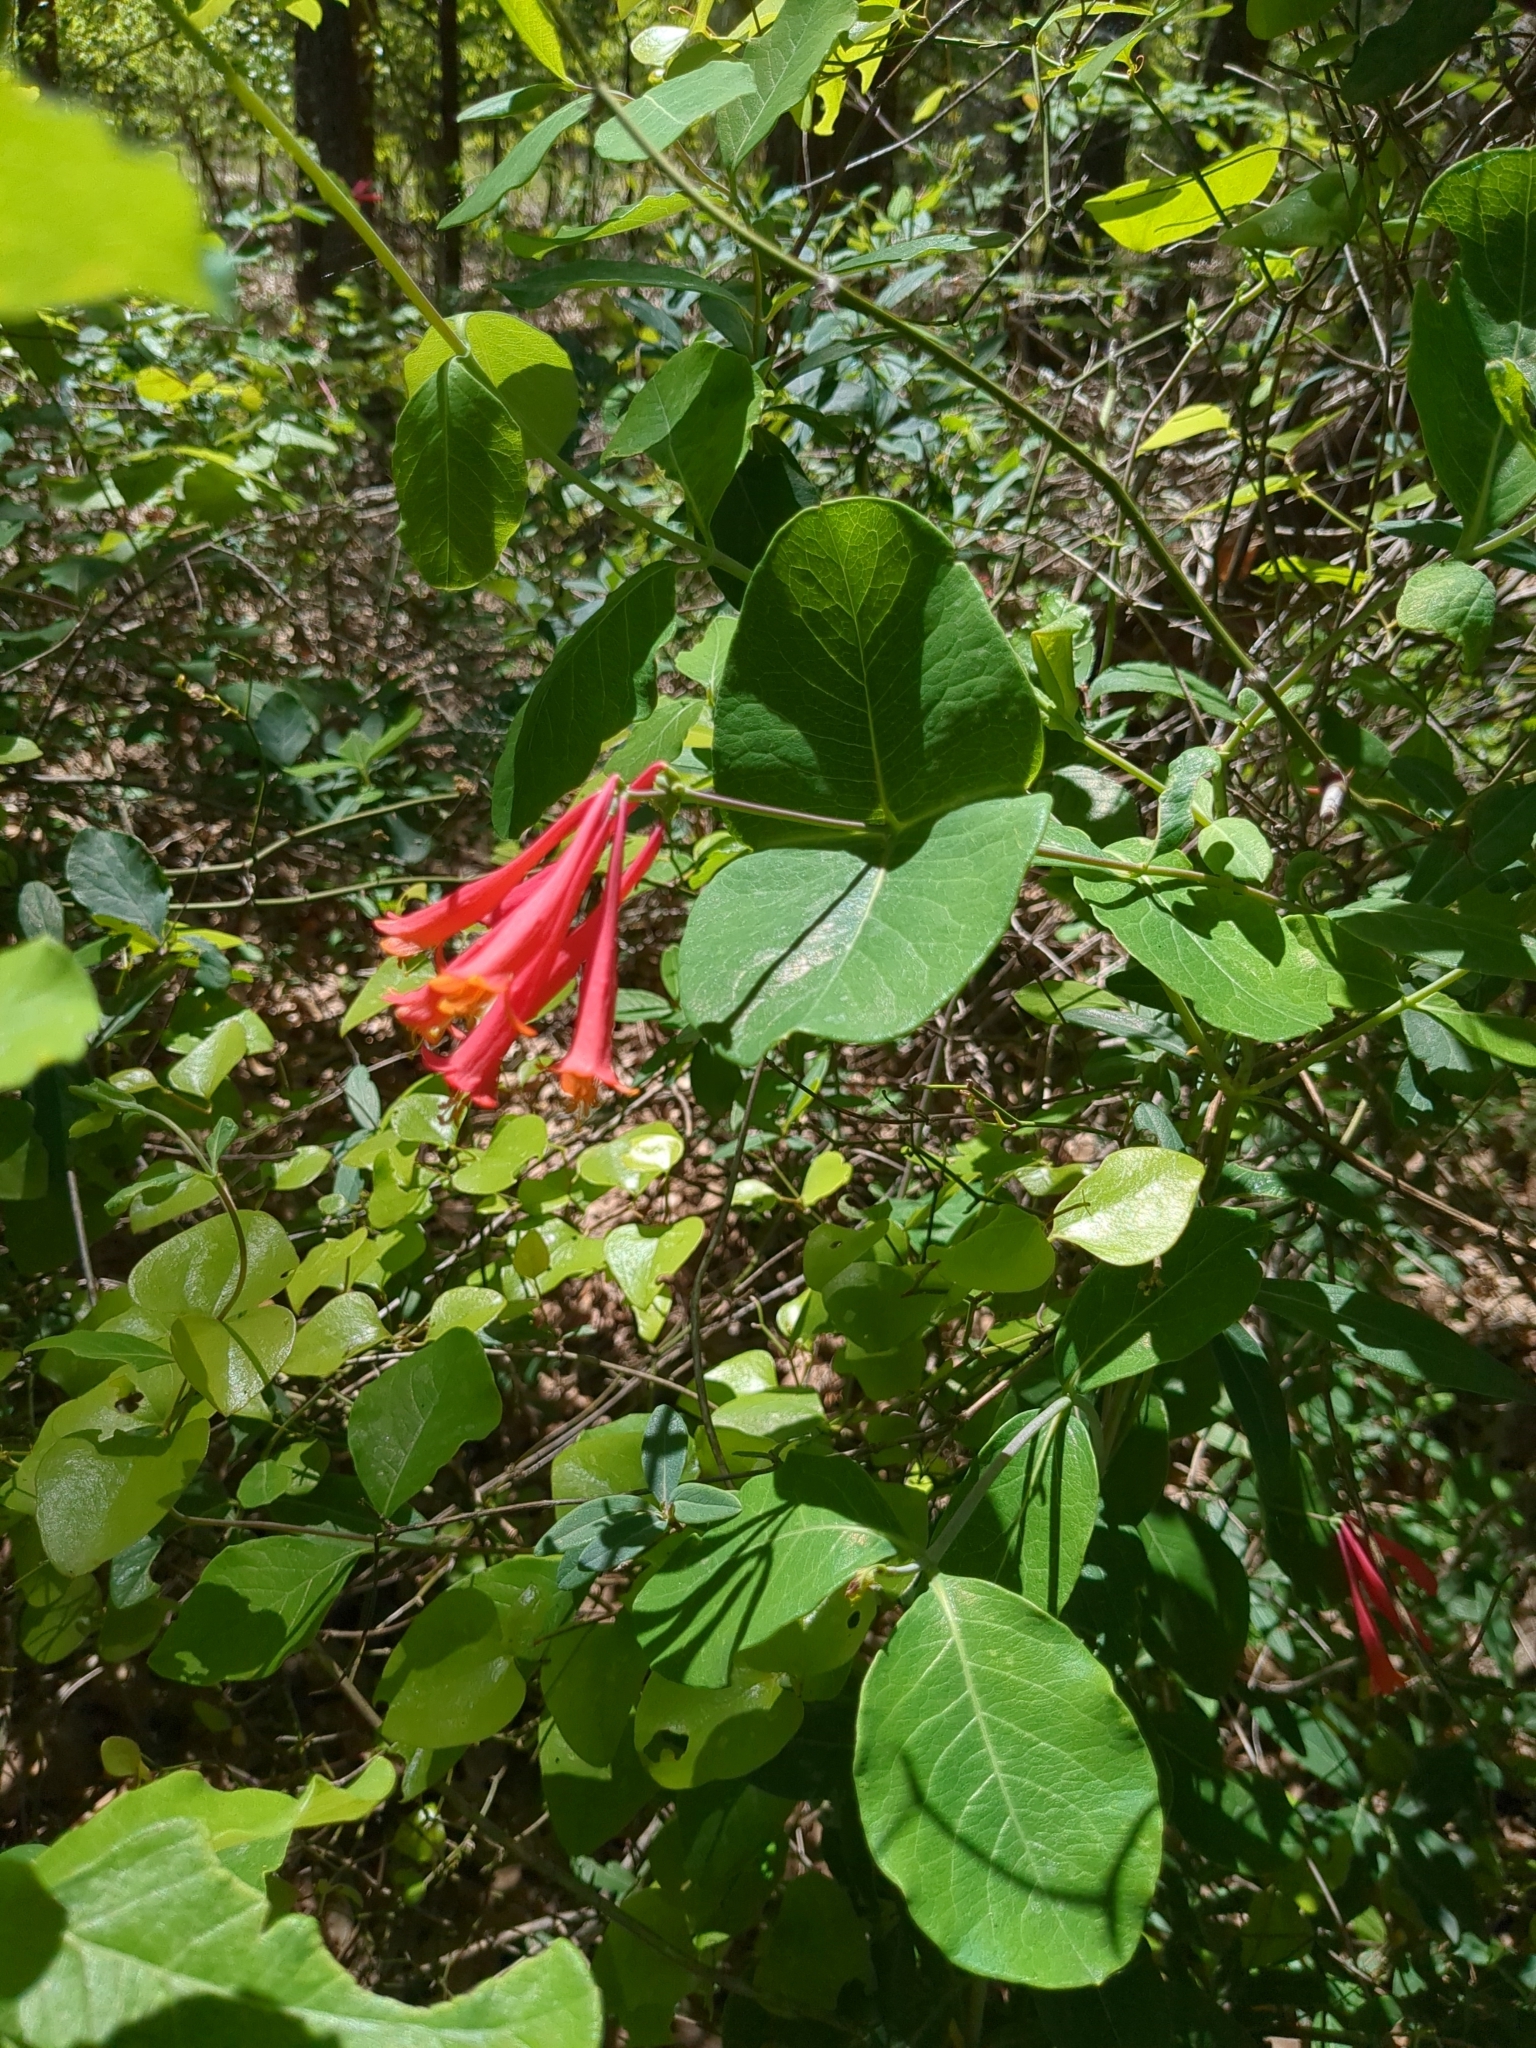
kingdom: Plantae
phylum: Tracheophyta
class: Magnoliopsida
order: Dipsacales
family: Caprifoliaceae
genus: Lonicera
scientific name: Lonicera sempervirens
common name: Coral honeysuckle
